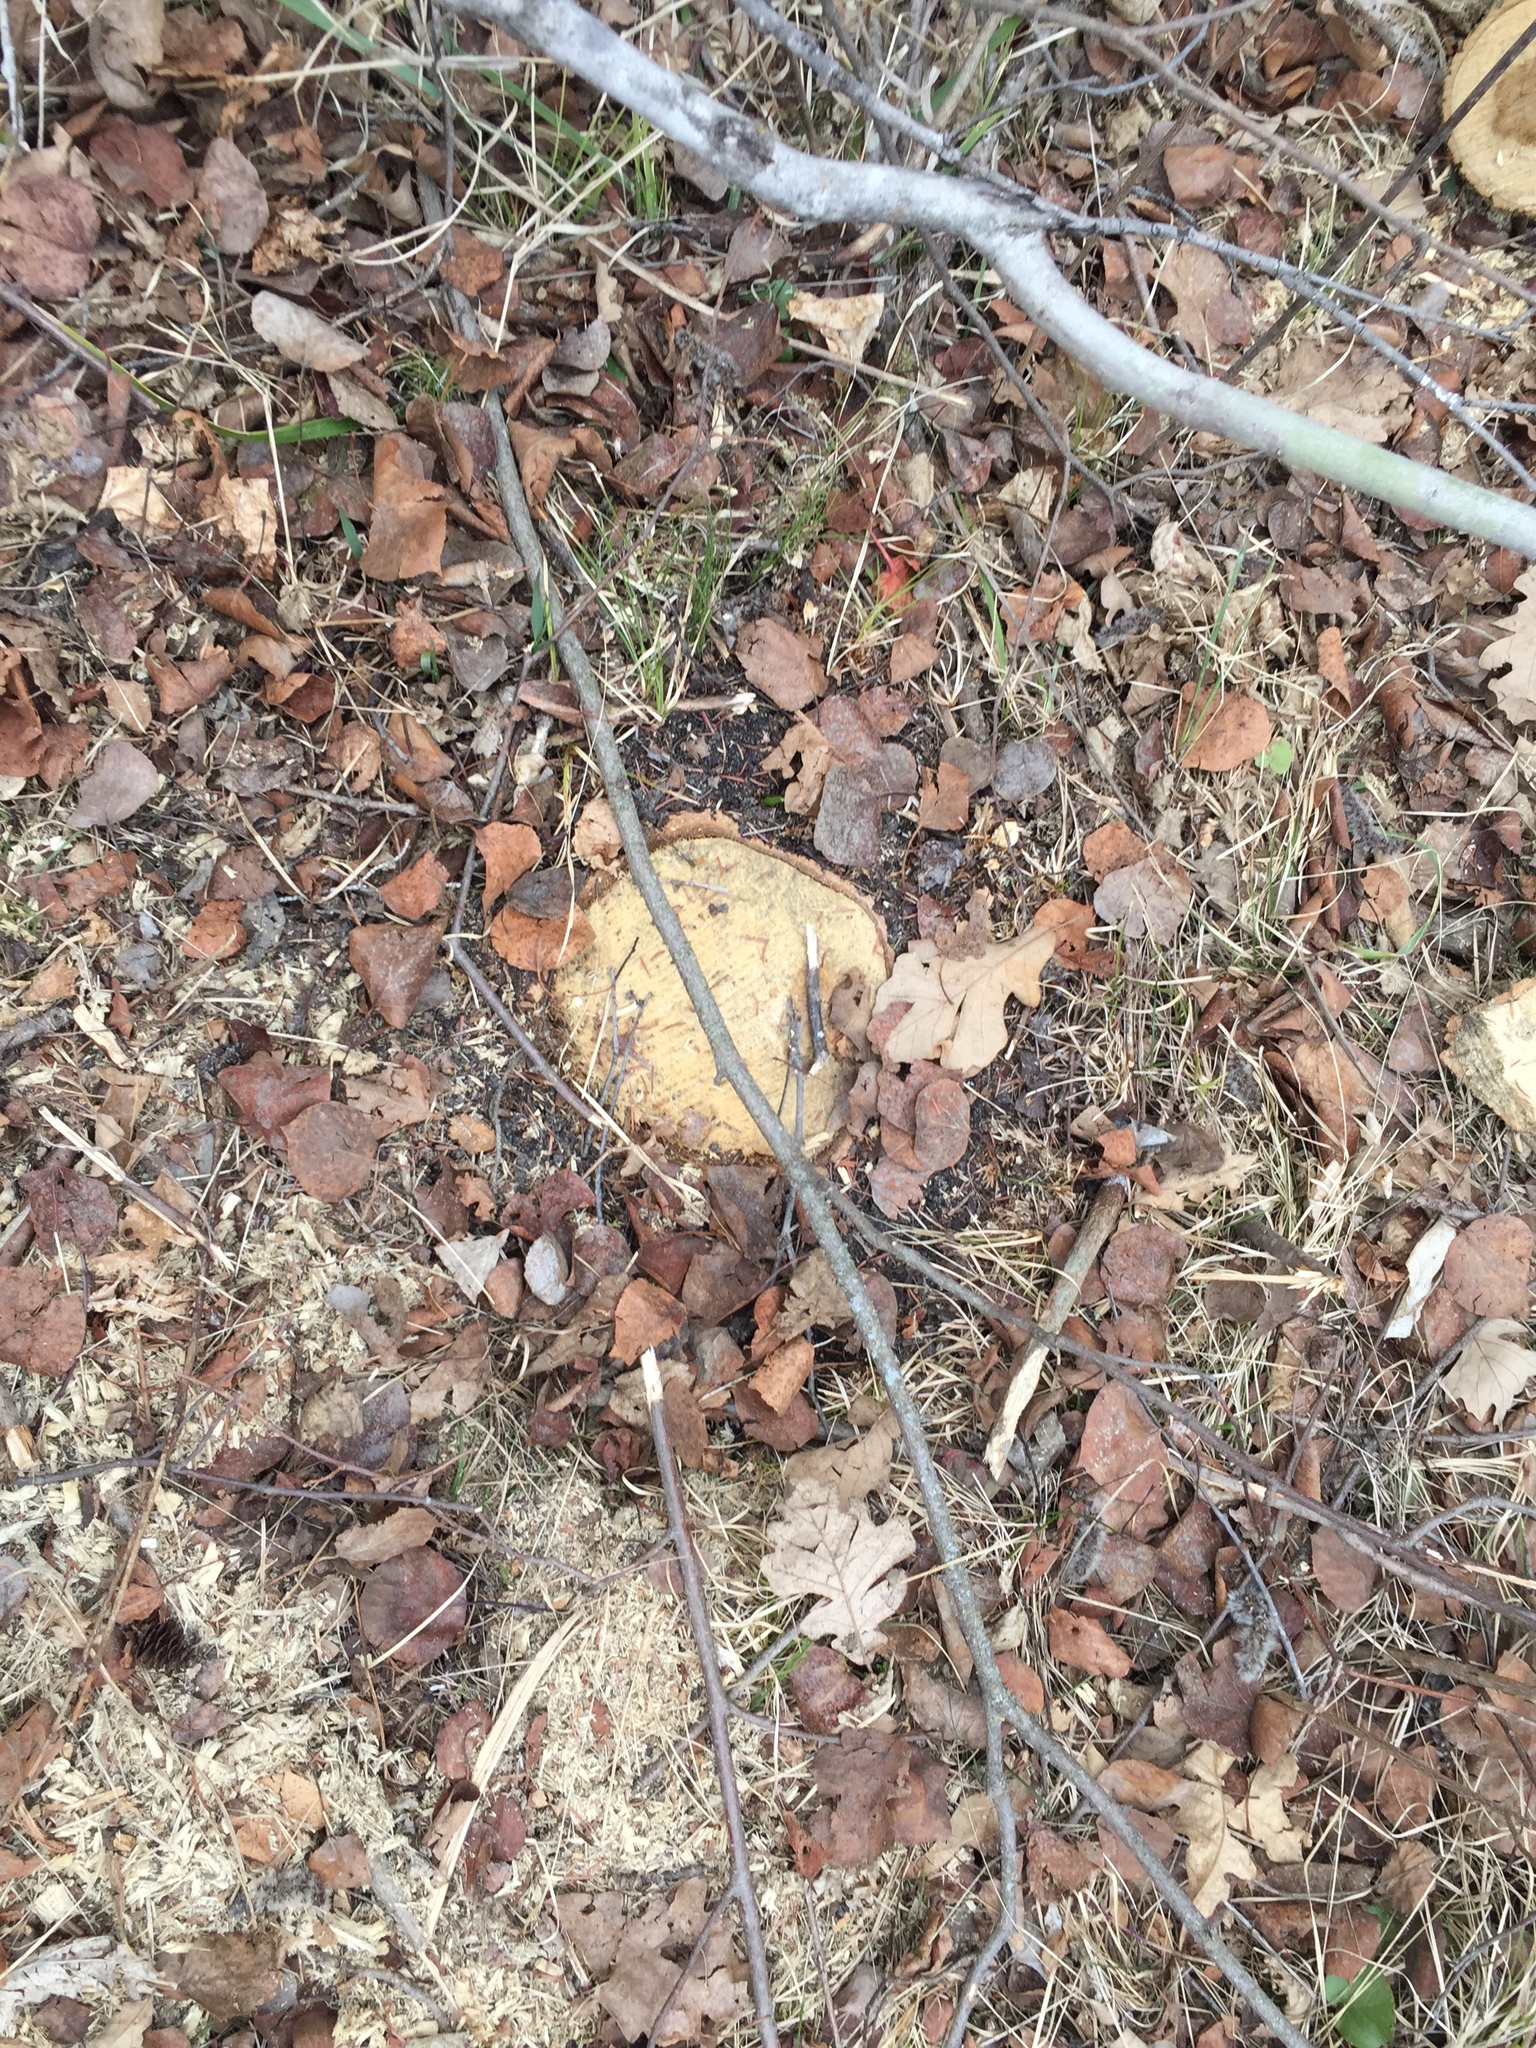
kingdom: Plantae
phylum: Tracheophyta
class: Magnoliopsida
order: Fagales
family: Fagaceae
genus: Quercus
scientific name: Quercus macrocarpa
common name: Bur oak
